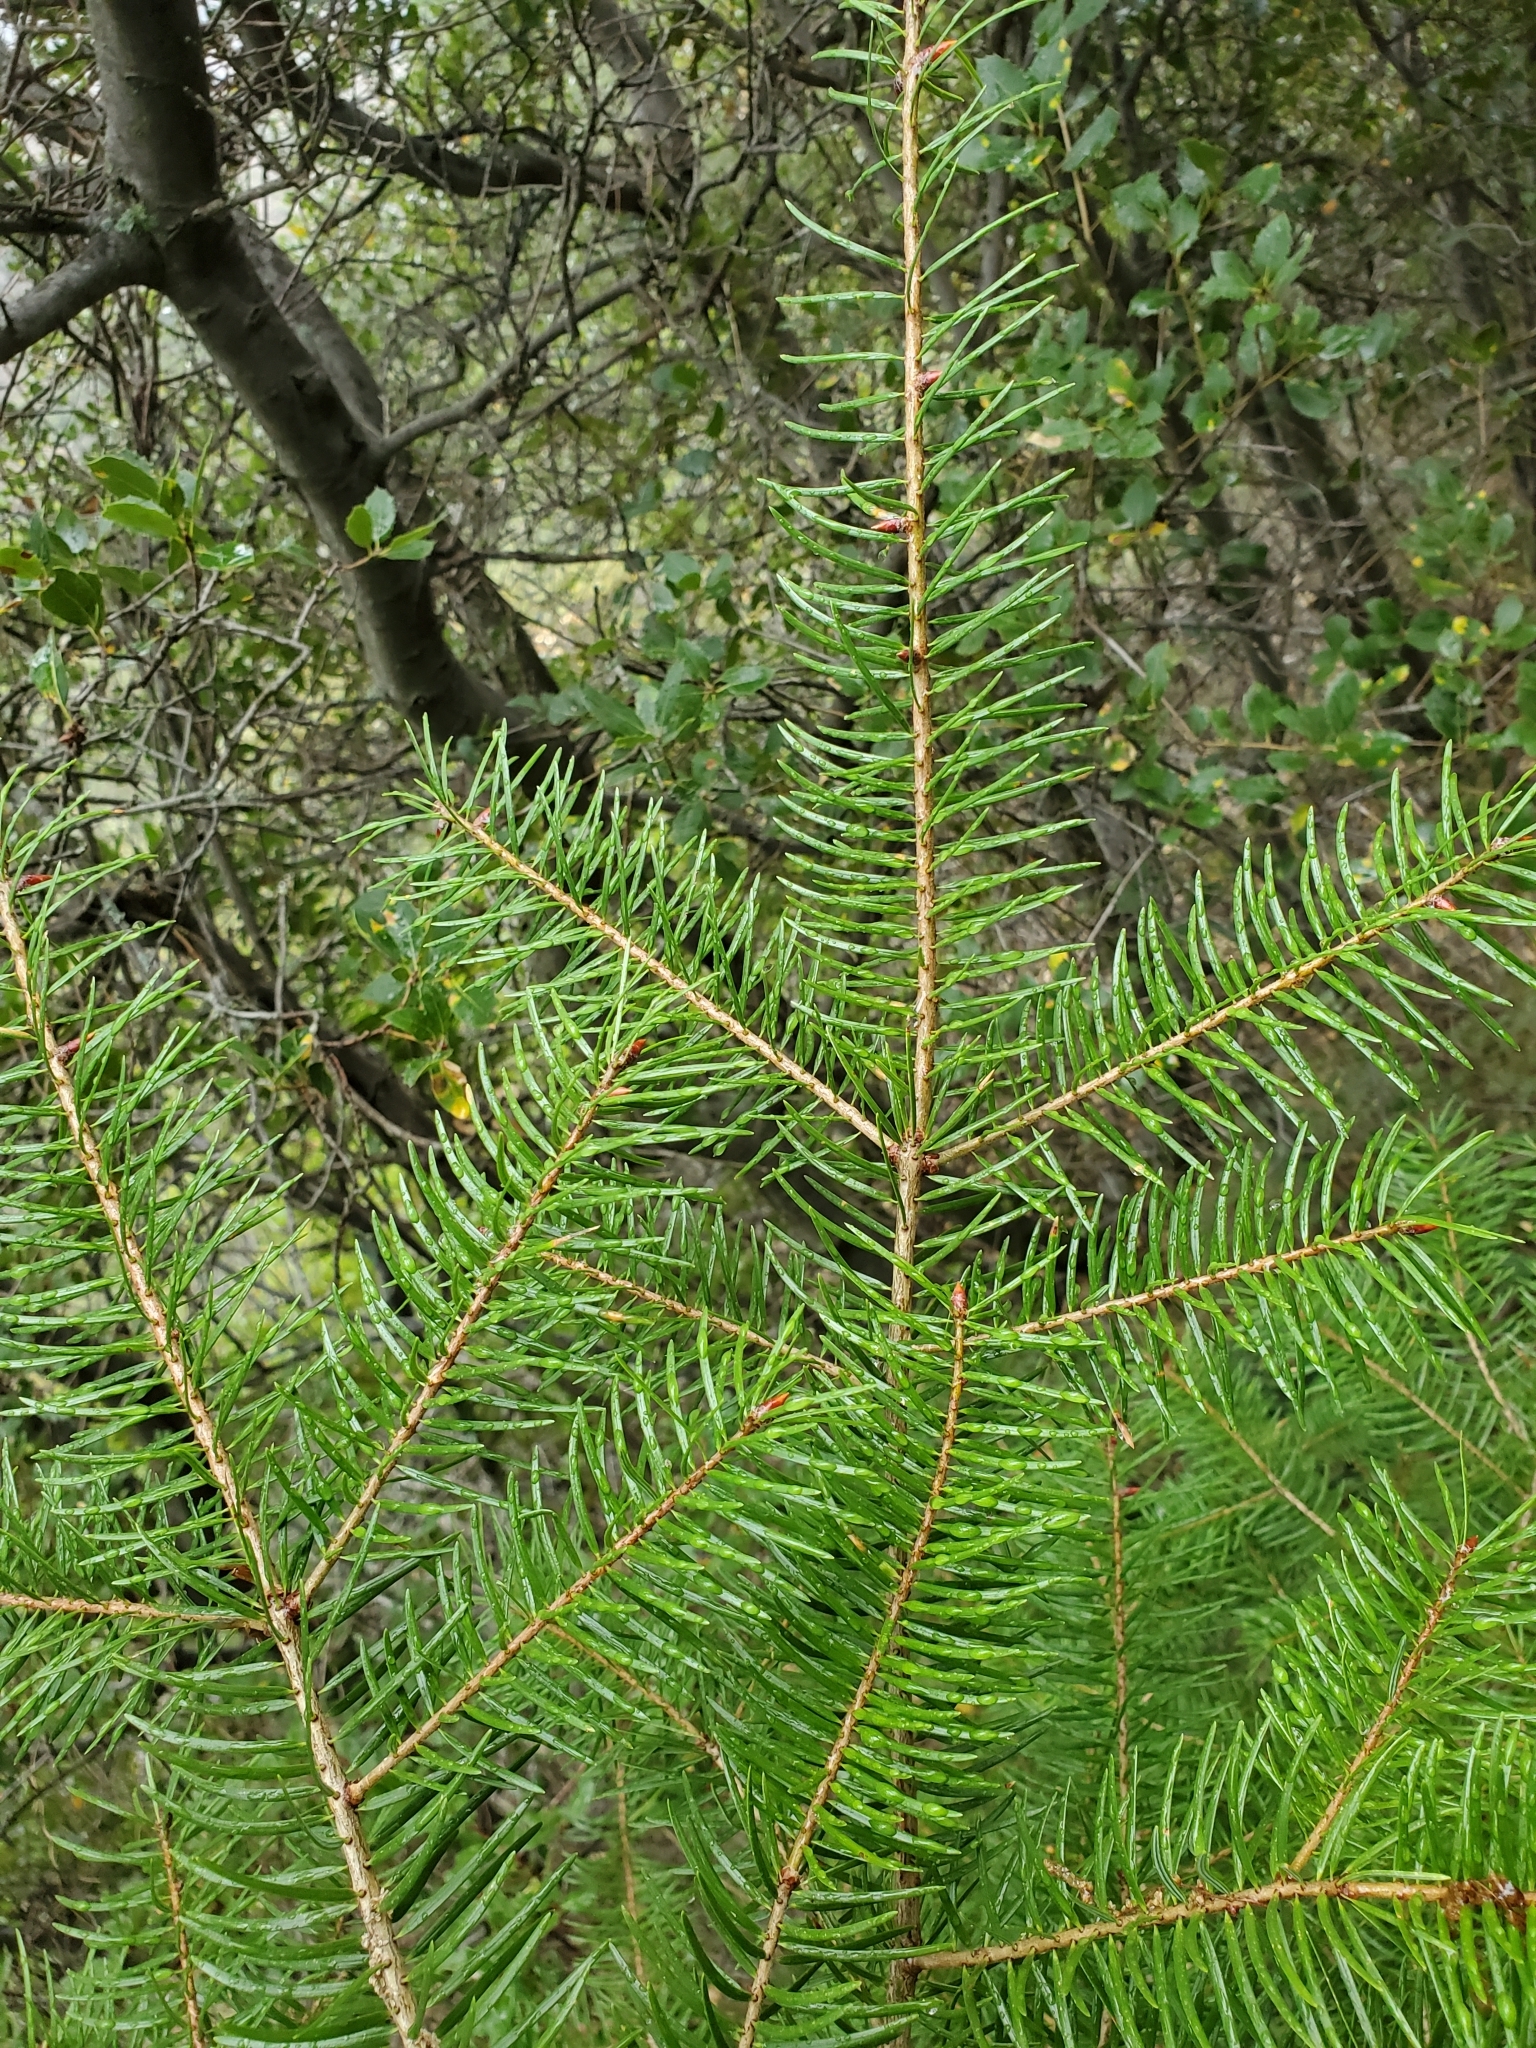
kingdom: Plantae
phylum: Tracheophyta
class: Pinopsida
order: Pinales
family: Pinaceae
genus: Pseudotsuga
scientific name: Pseudotsuga macrocarpa
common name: Big-cone douglas-fir
